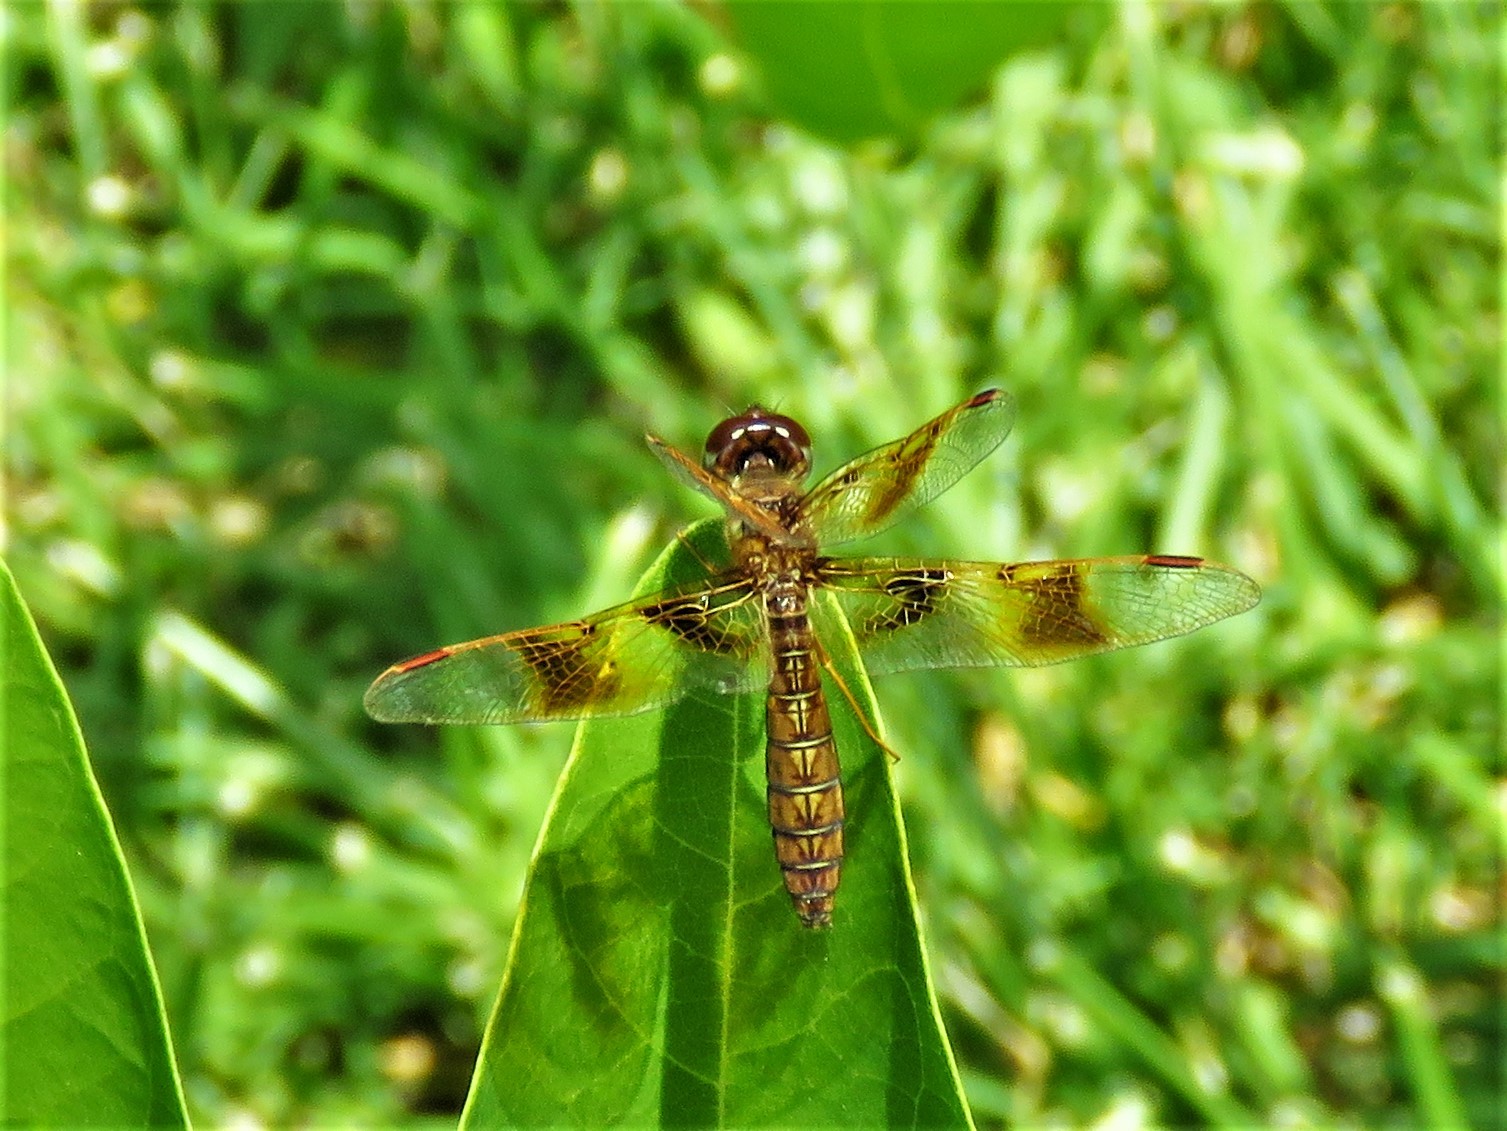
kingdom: Animalia
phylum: Arthropoda
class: Insecta
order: Odonata
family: Libellulidae
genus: Perithemis
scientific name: Perithemis tenera
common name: Eastern amberwing
